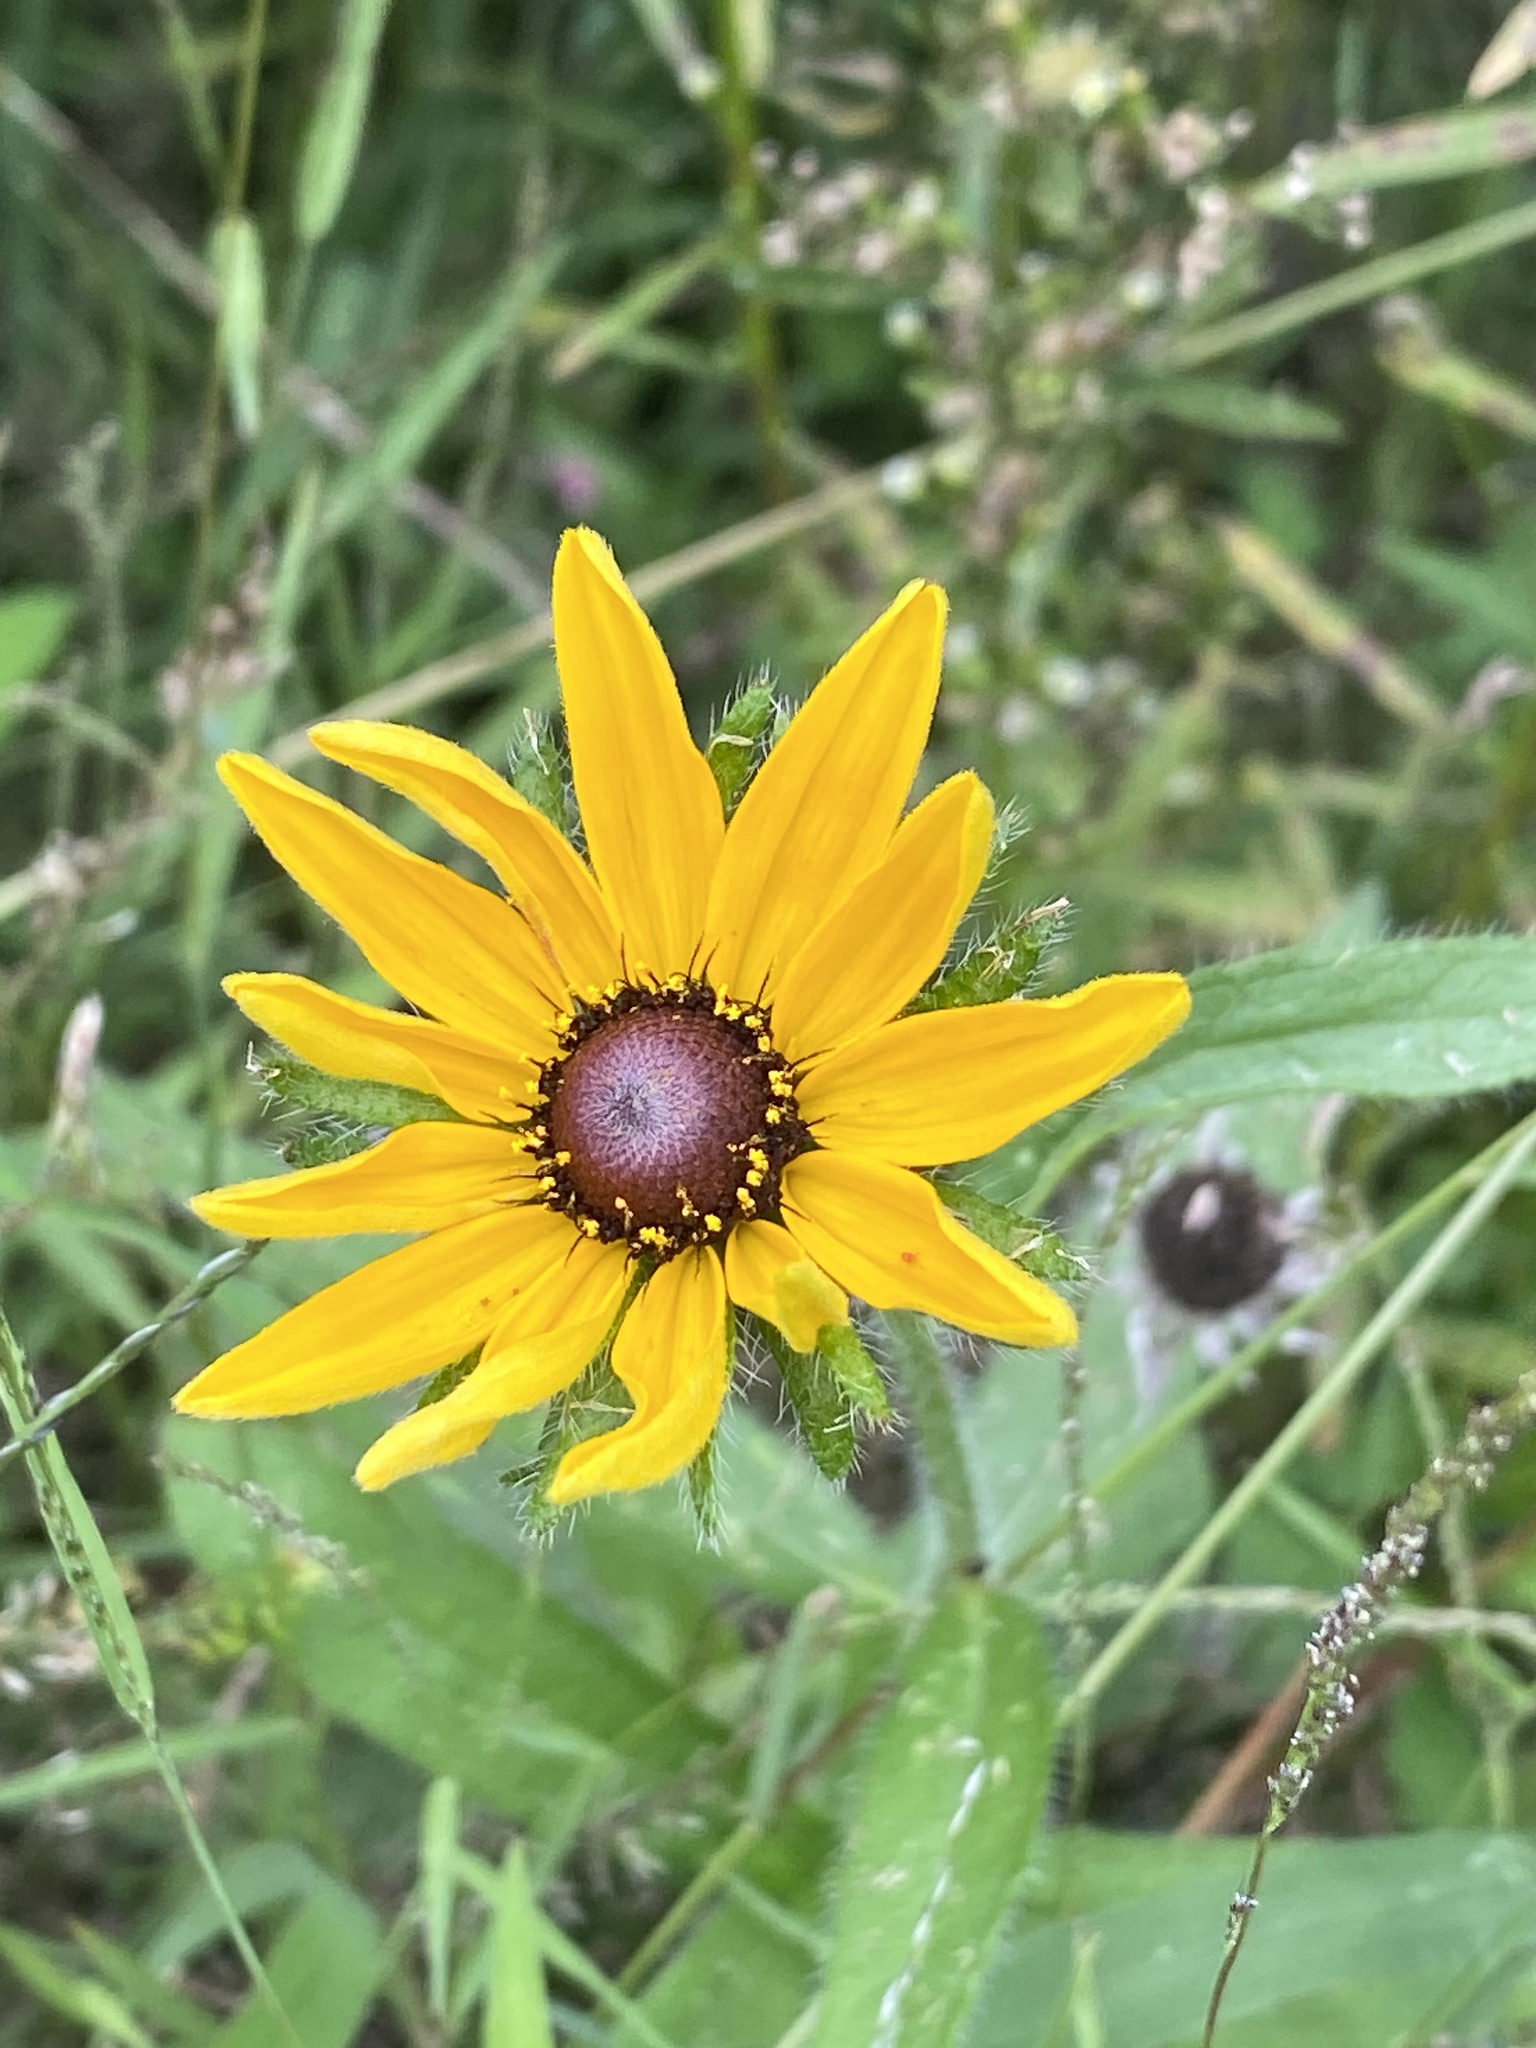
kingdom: Plantae
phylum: Tracheophyta
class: Magnoliopsida
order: Asterales
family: Asteraceae
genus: Rudbeckia
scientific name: Rudbeckia hirta
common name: Black-eyed-susan
